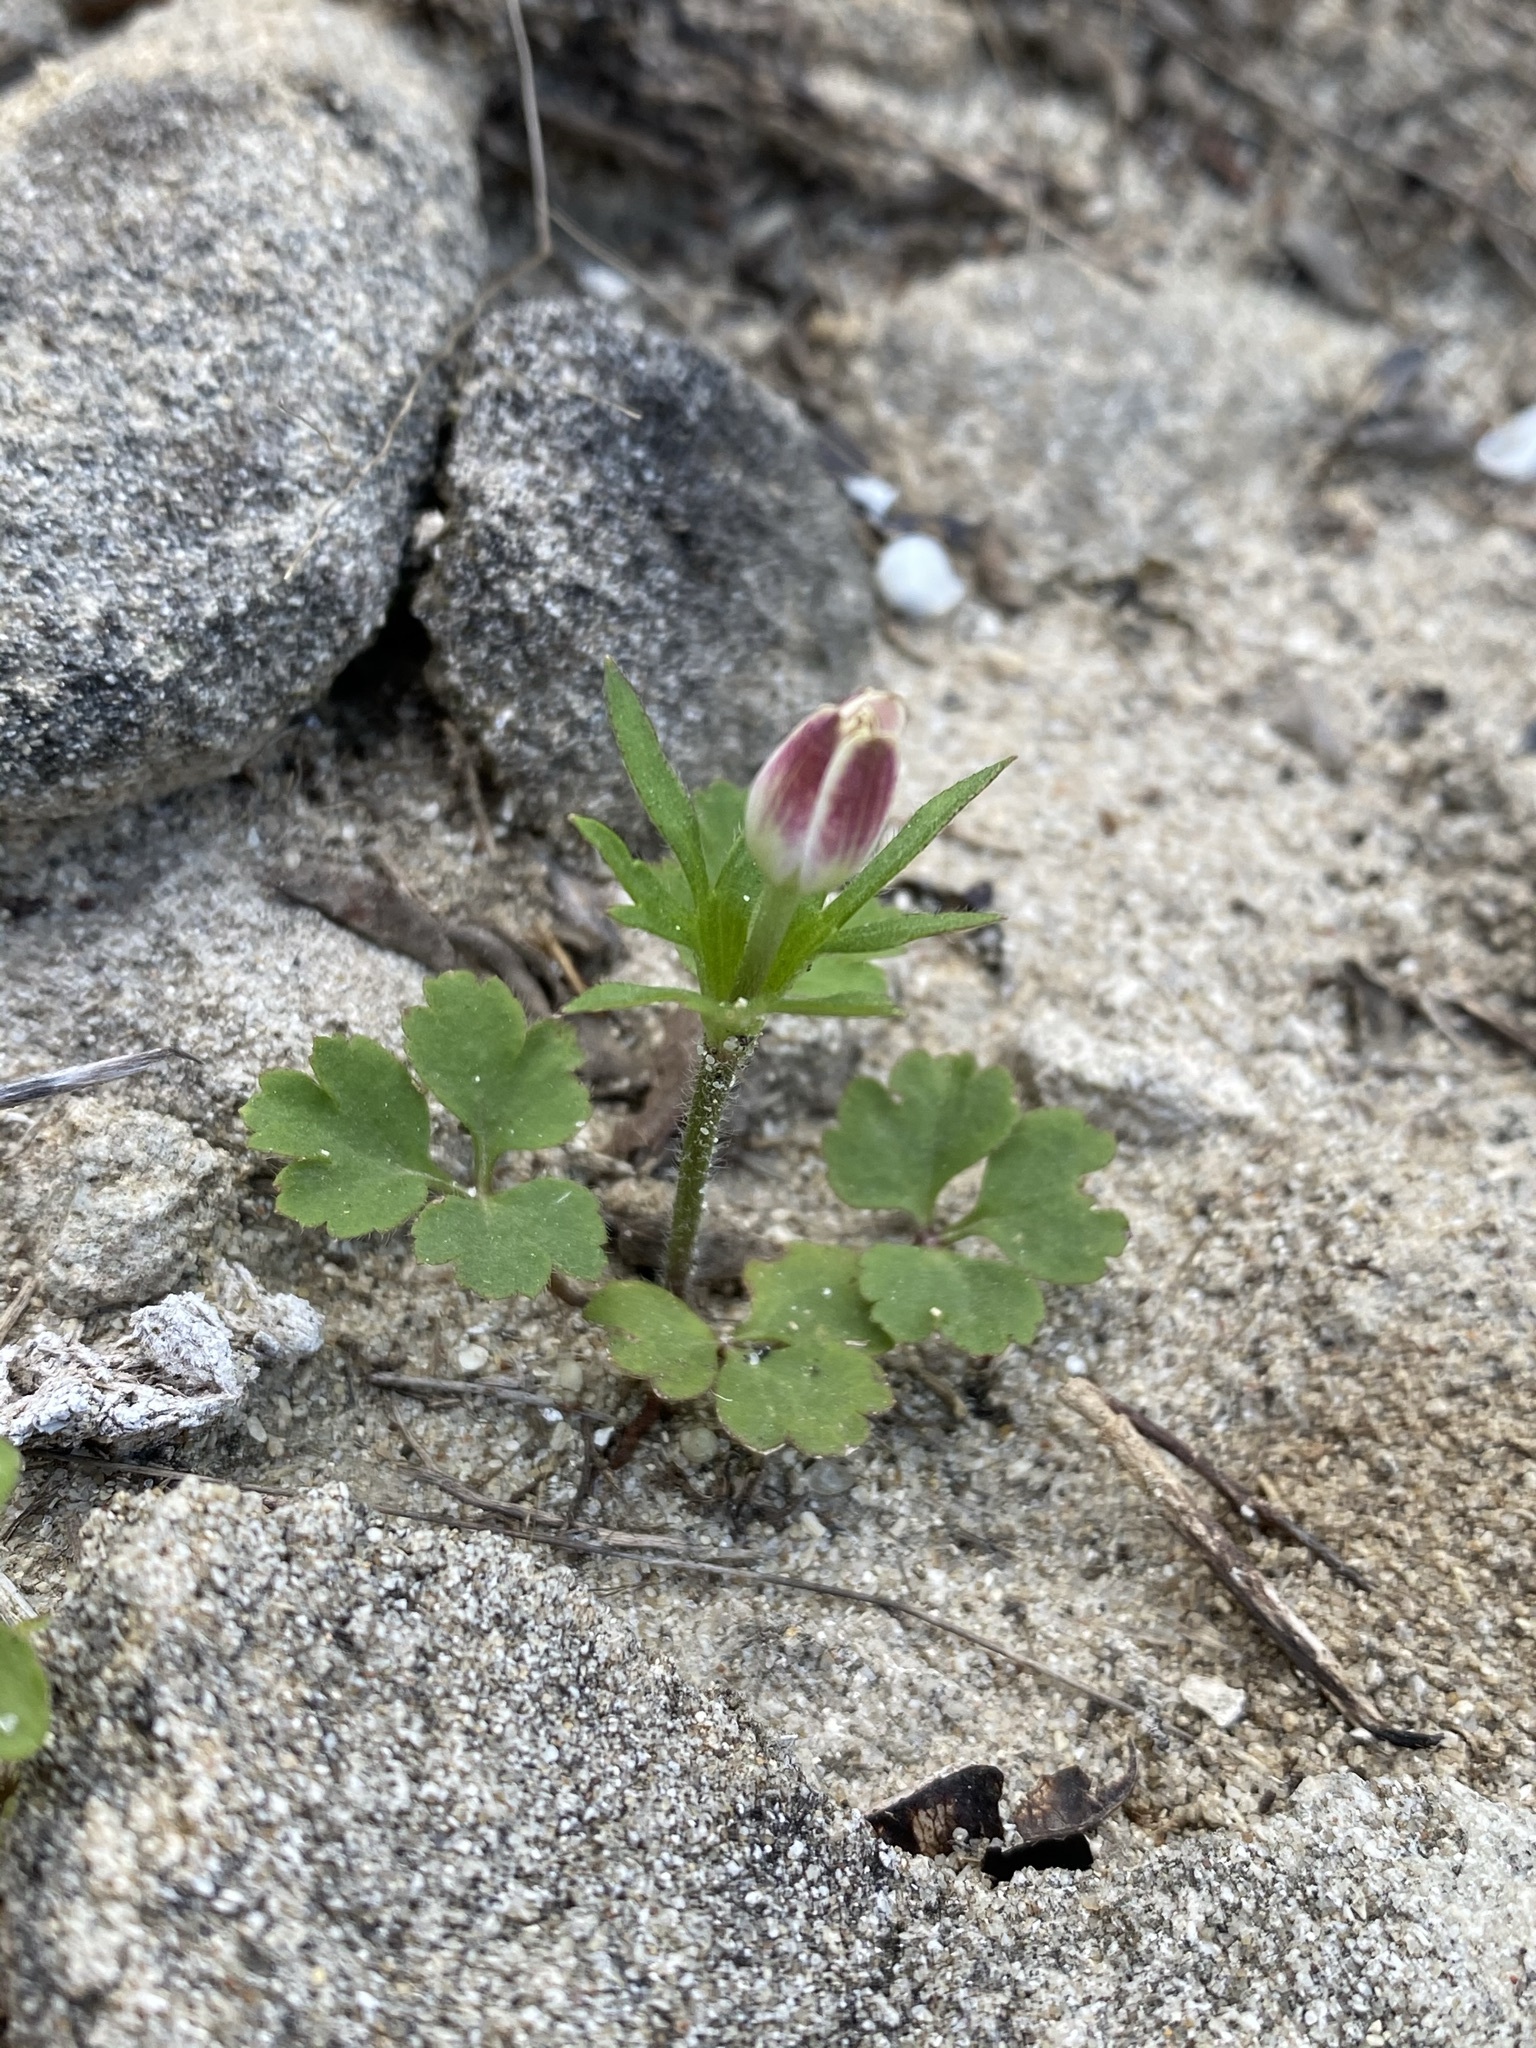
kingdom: Plantae
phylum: Tracheophyta
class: Magnoliopsida
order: Ranunculales
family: Ranunculaceae
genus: Anemone
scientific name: Anemone berlandieri
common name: Ten-petal anemone
